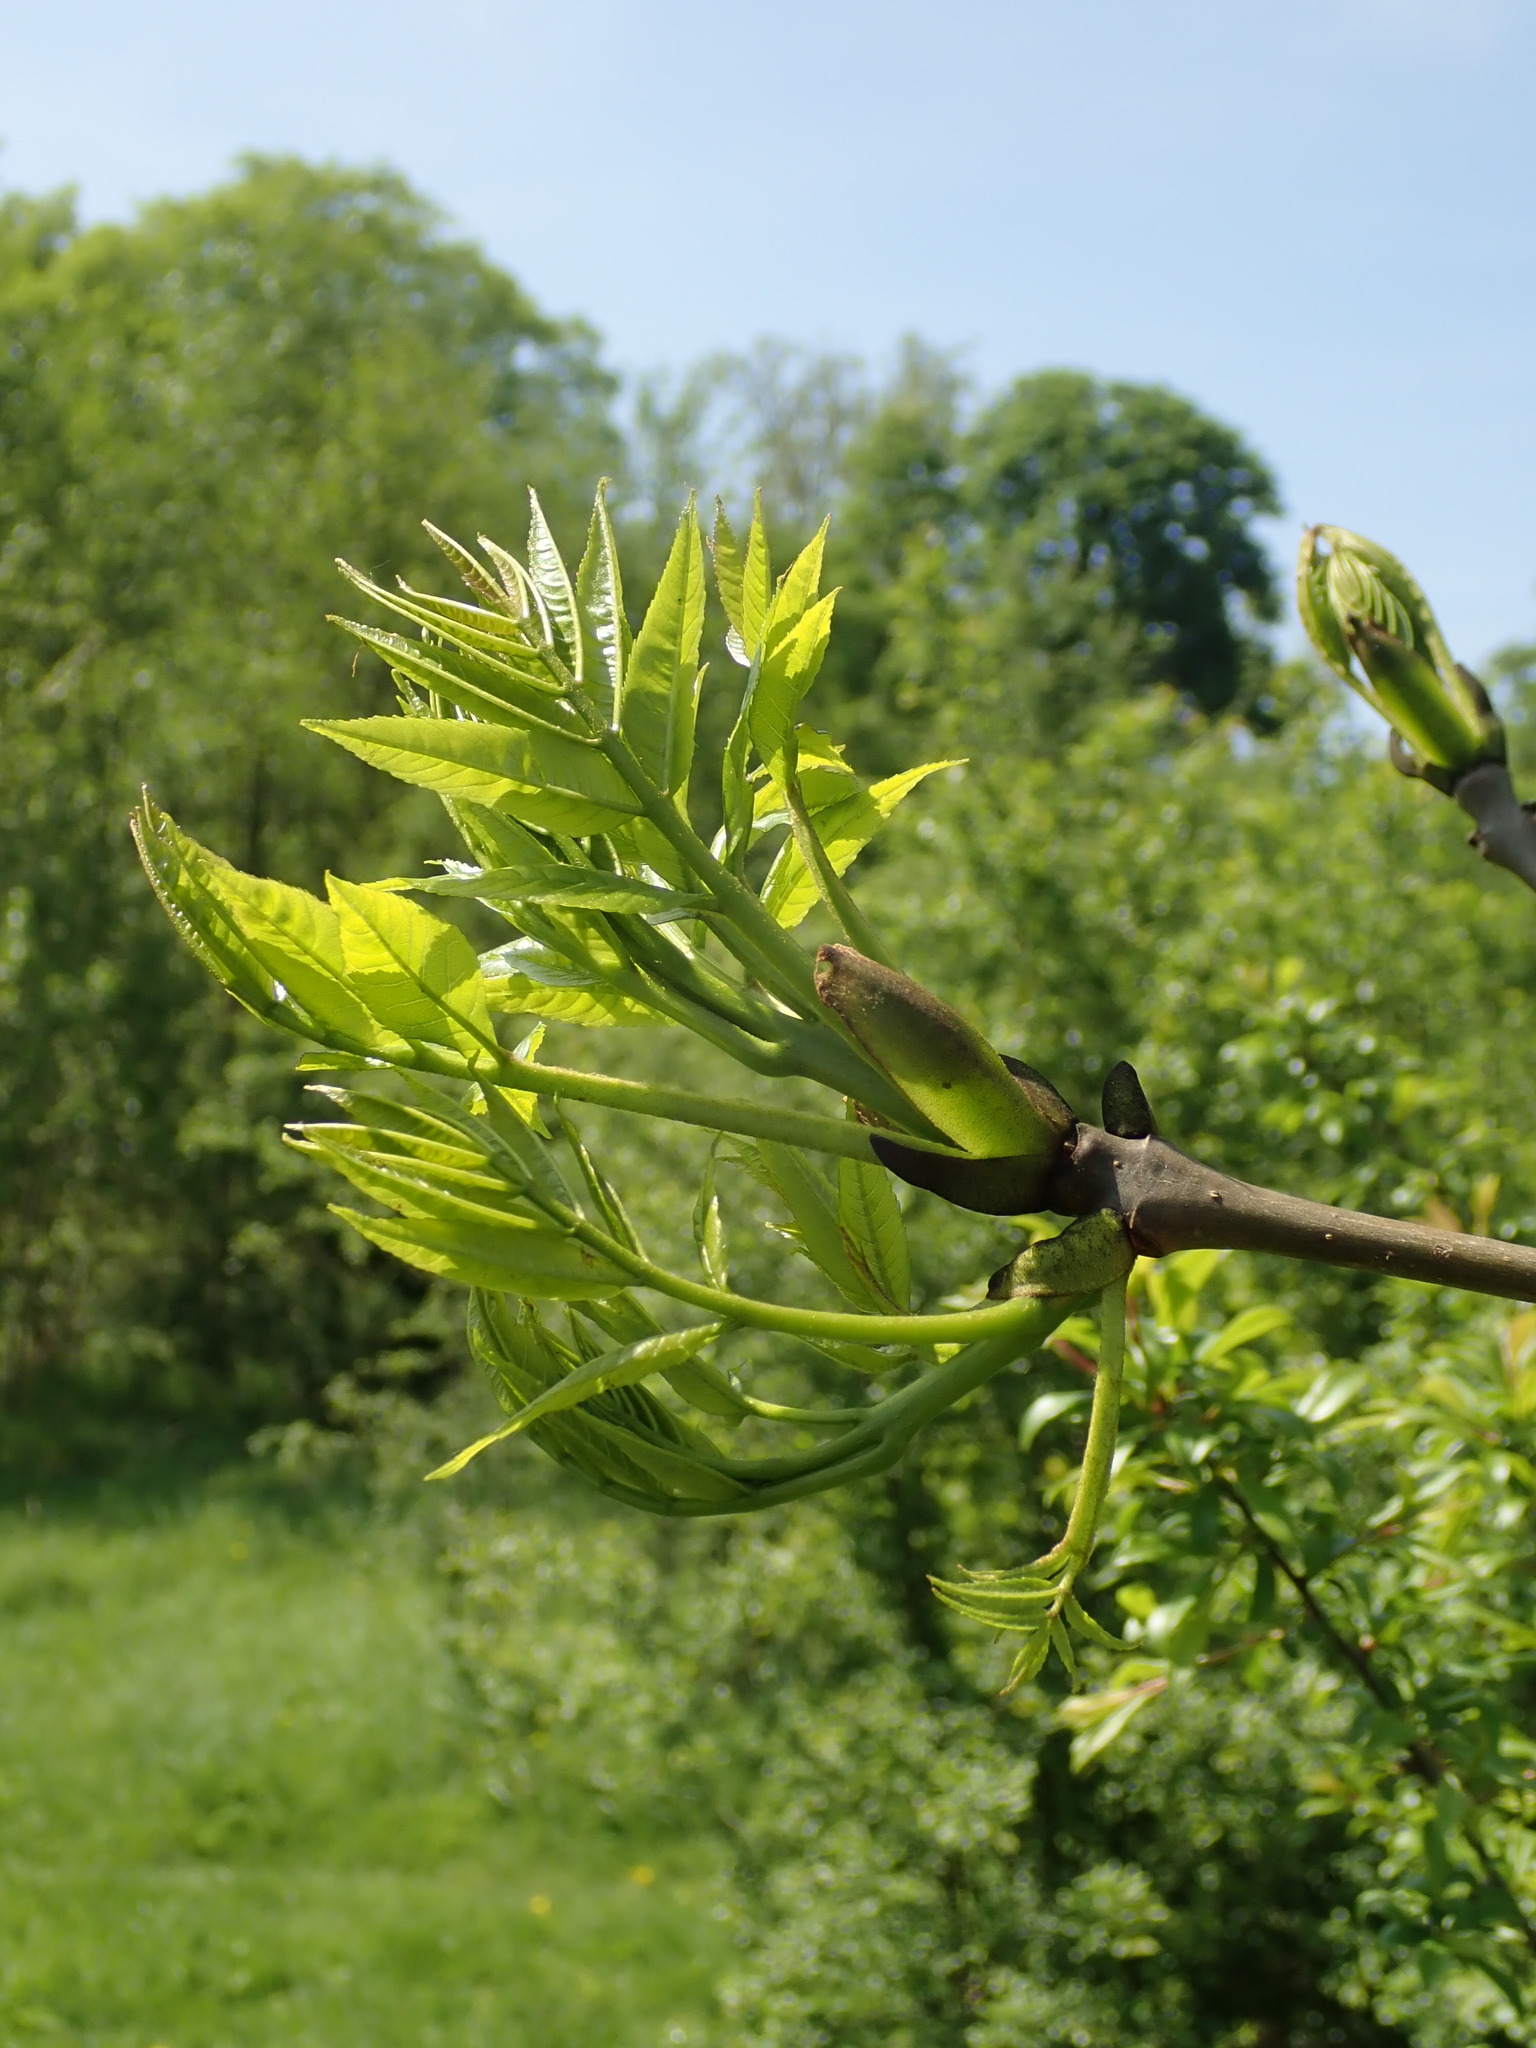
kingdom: Plantae
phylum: Tracheophyta
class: Magnoliopsida
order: Lamiales
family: Oleaceae
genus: Fraxinus
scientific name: Fraxinus excelsior
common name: European ash
